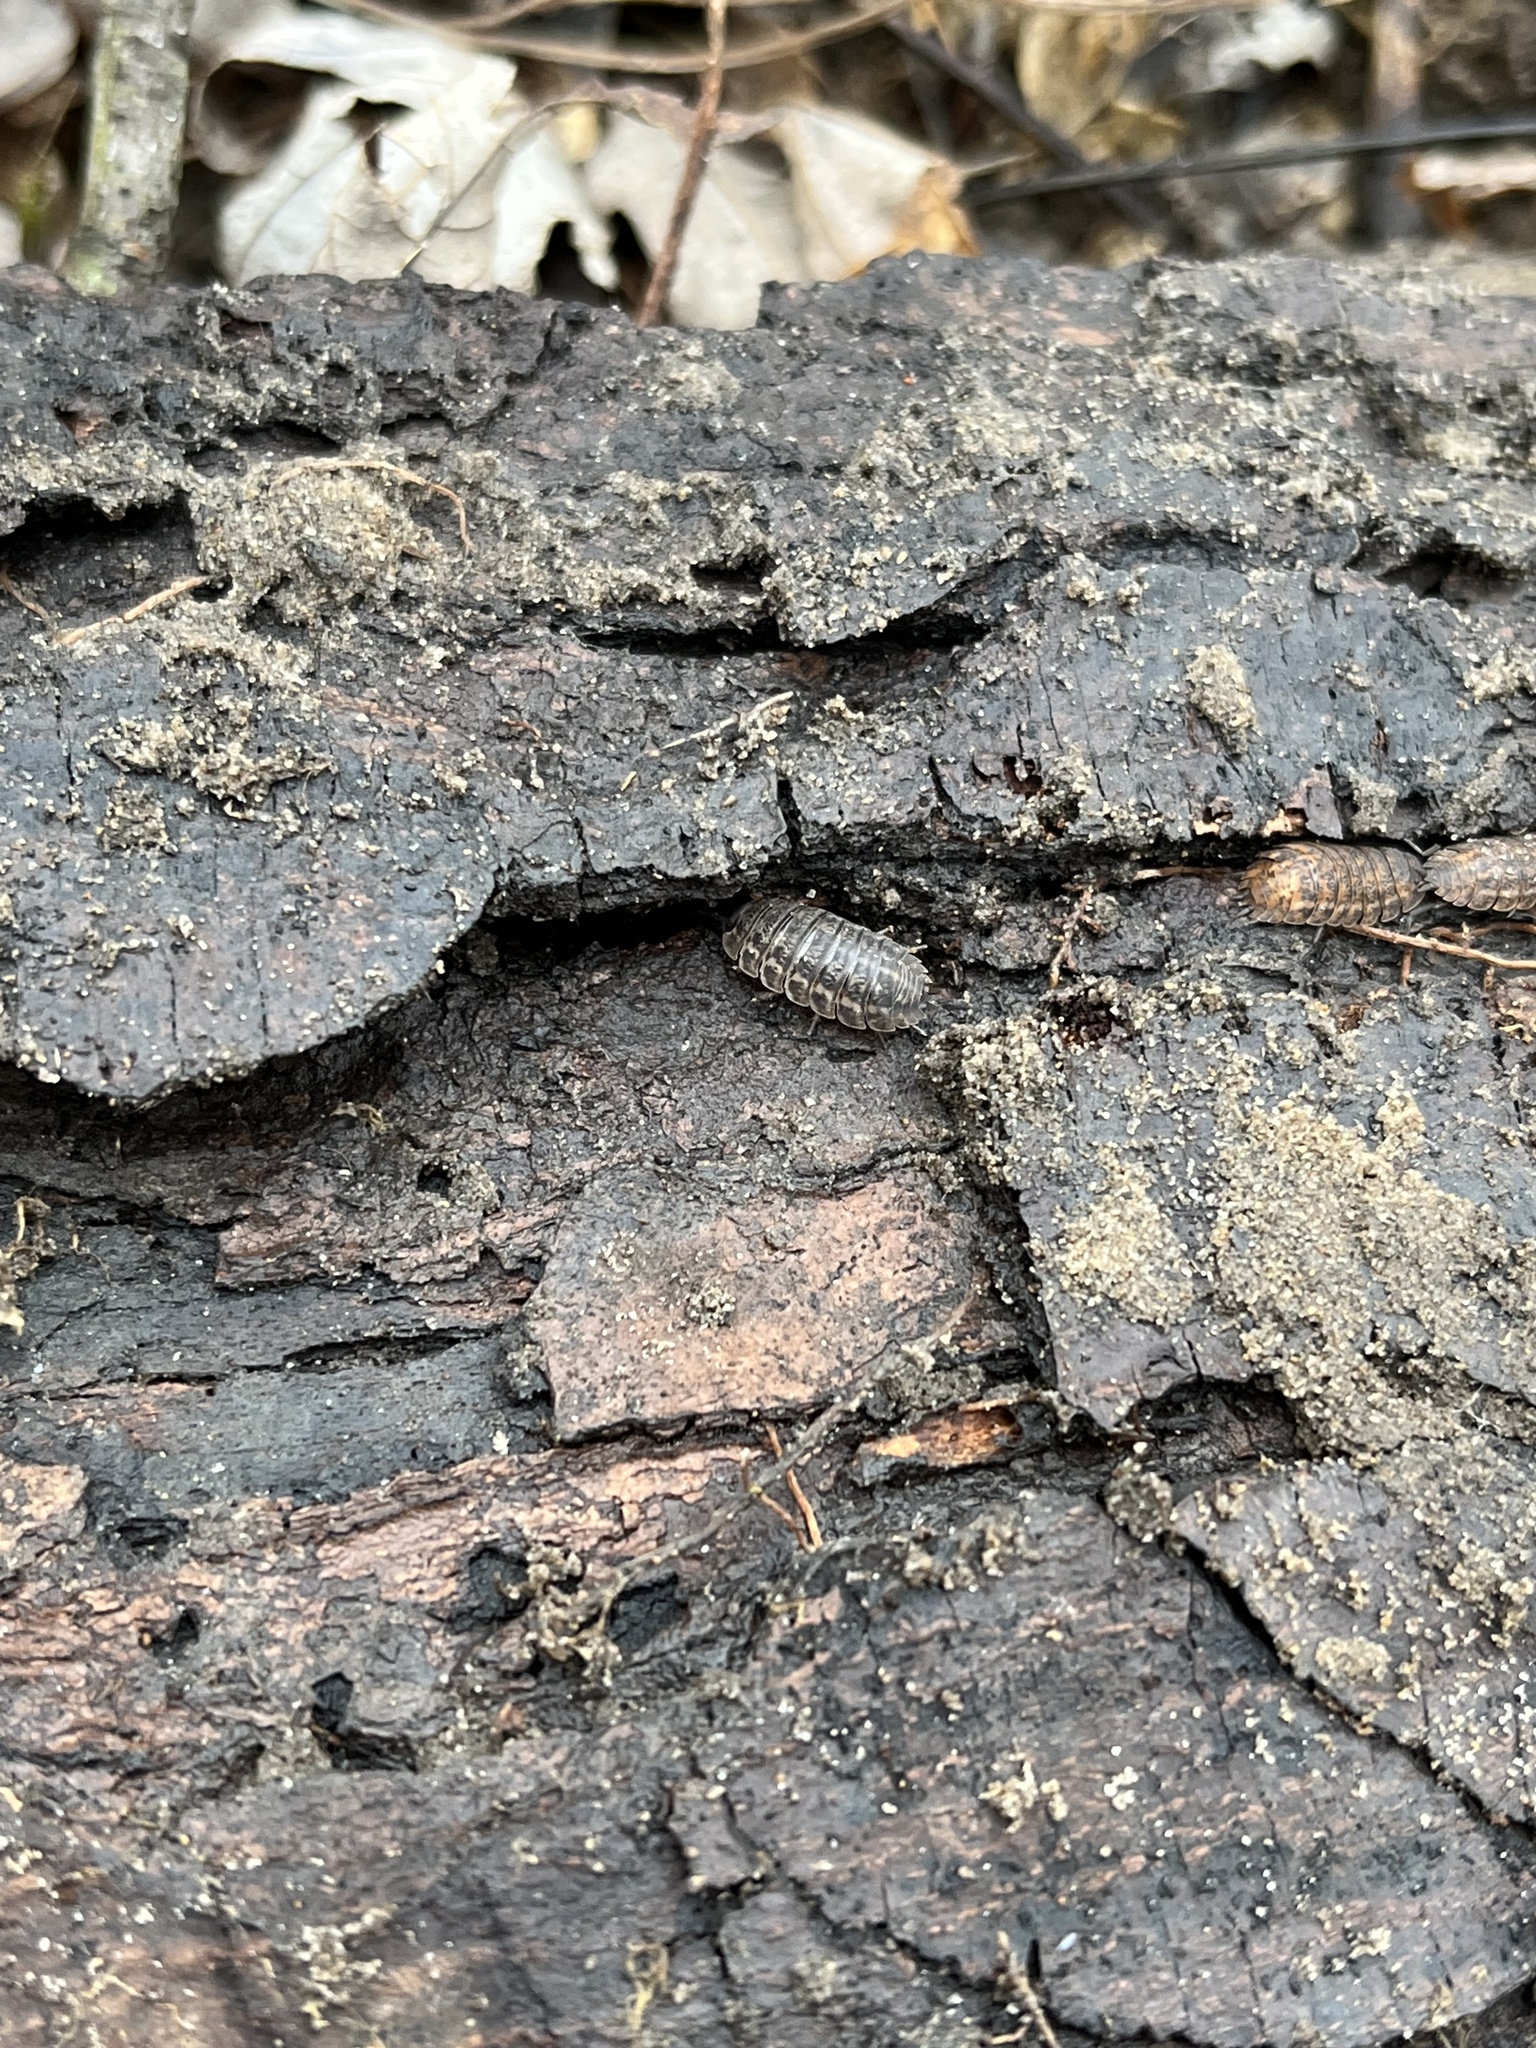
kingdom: Animalia
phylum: Arthropoda
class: Malacostraca
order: Isopoda
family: Trachelipodidae
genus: Trachelipus
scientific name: Trachelipus rathkii
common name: Isopod
